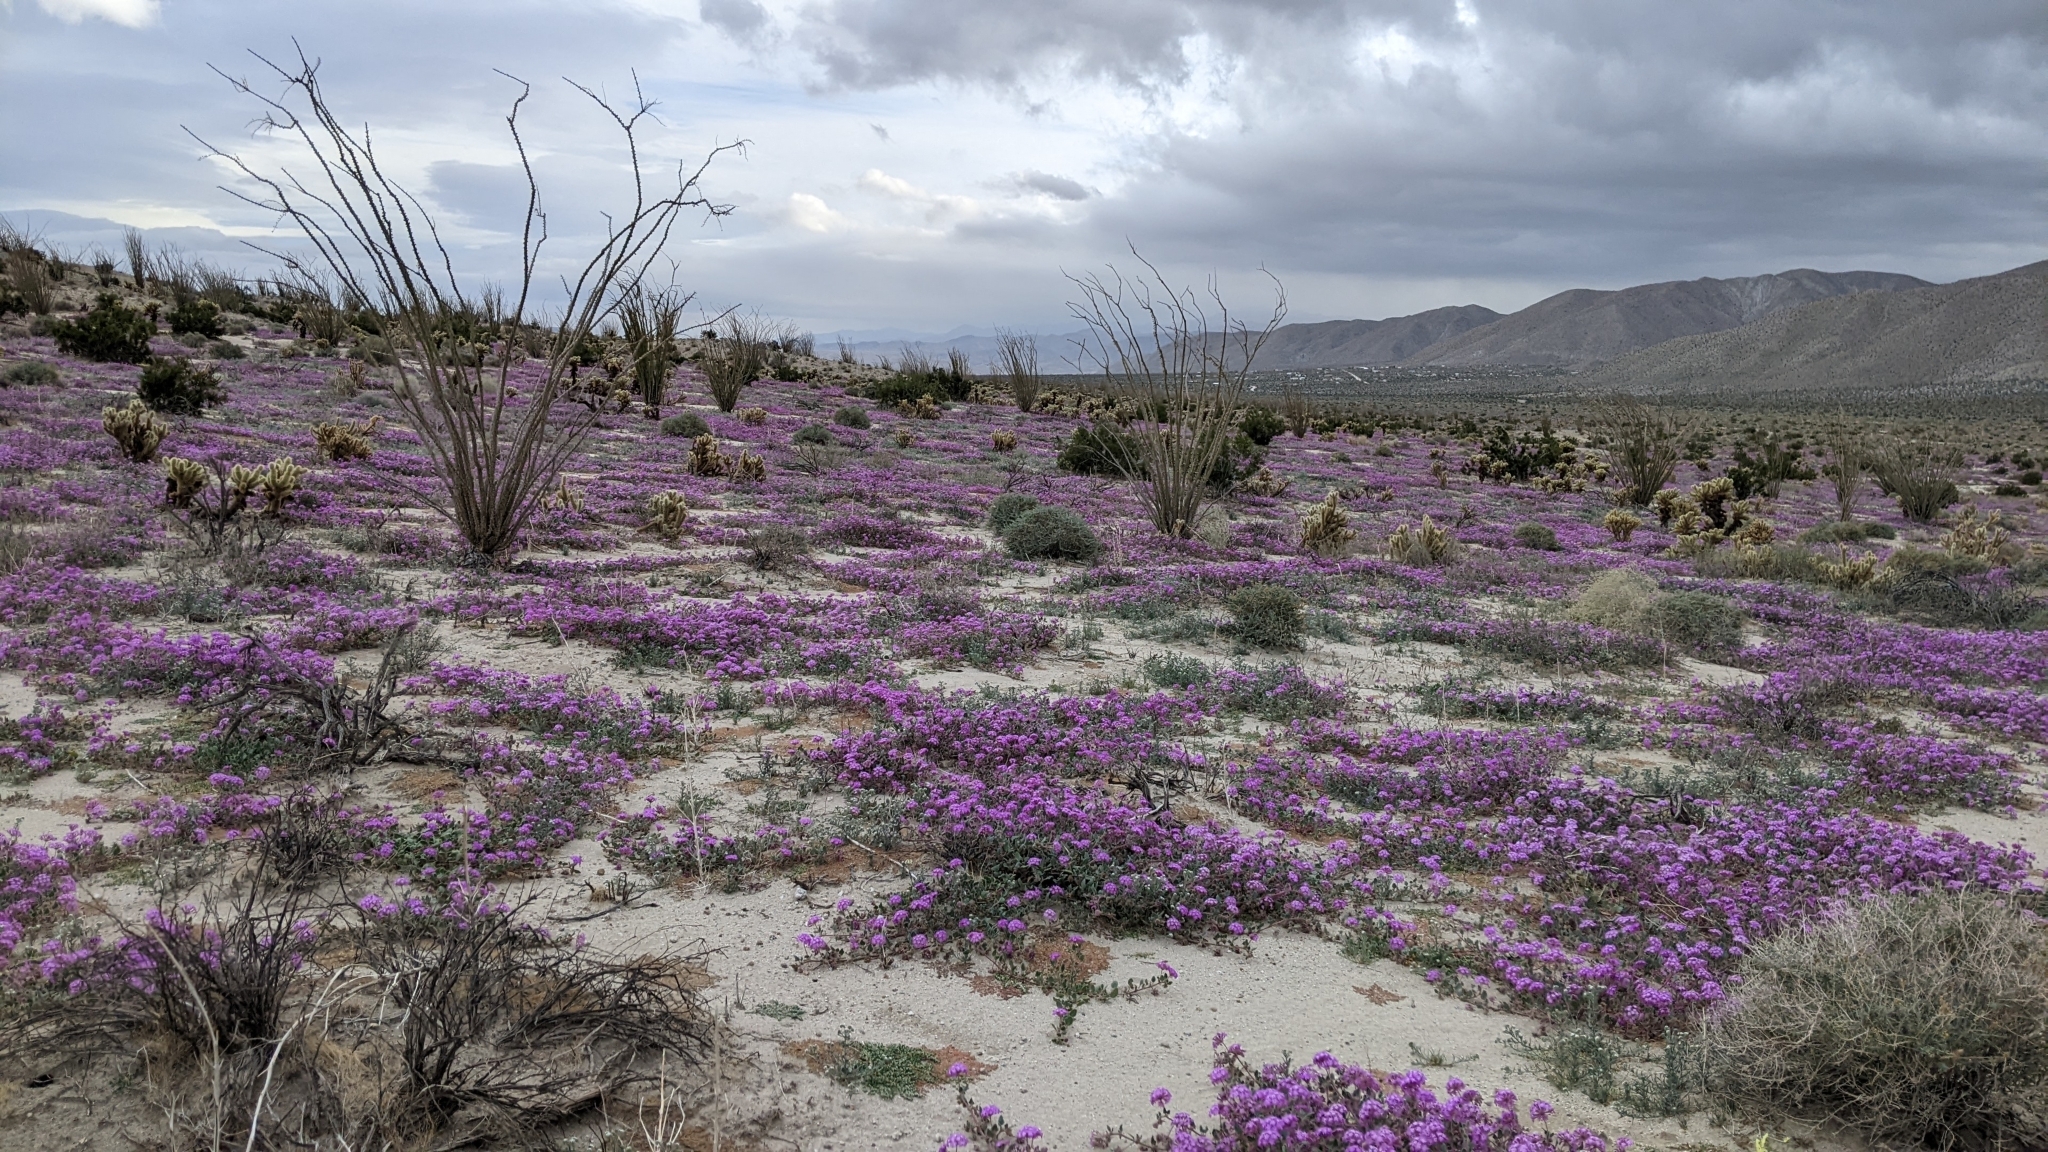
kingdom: Plantae
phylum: Tracheophyta
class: Magnoliopsida
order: Caryophyllales
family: Nyctaginaceae
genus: Abronia
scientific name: Abronia villosa
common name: Desert sand-verbena
